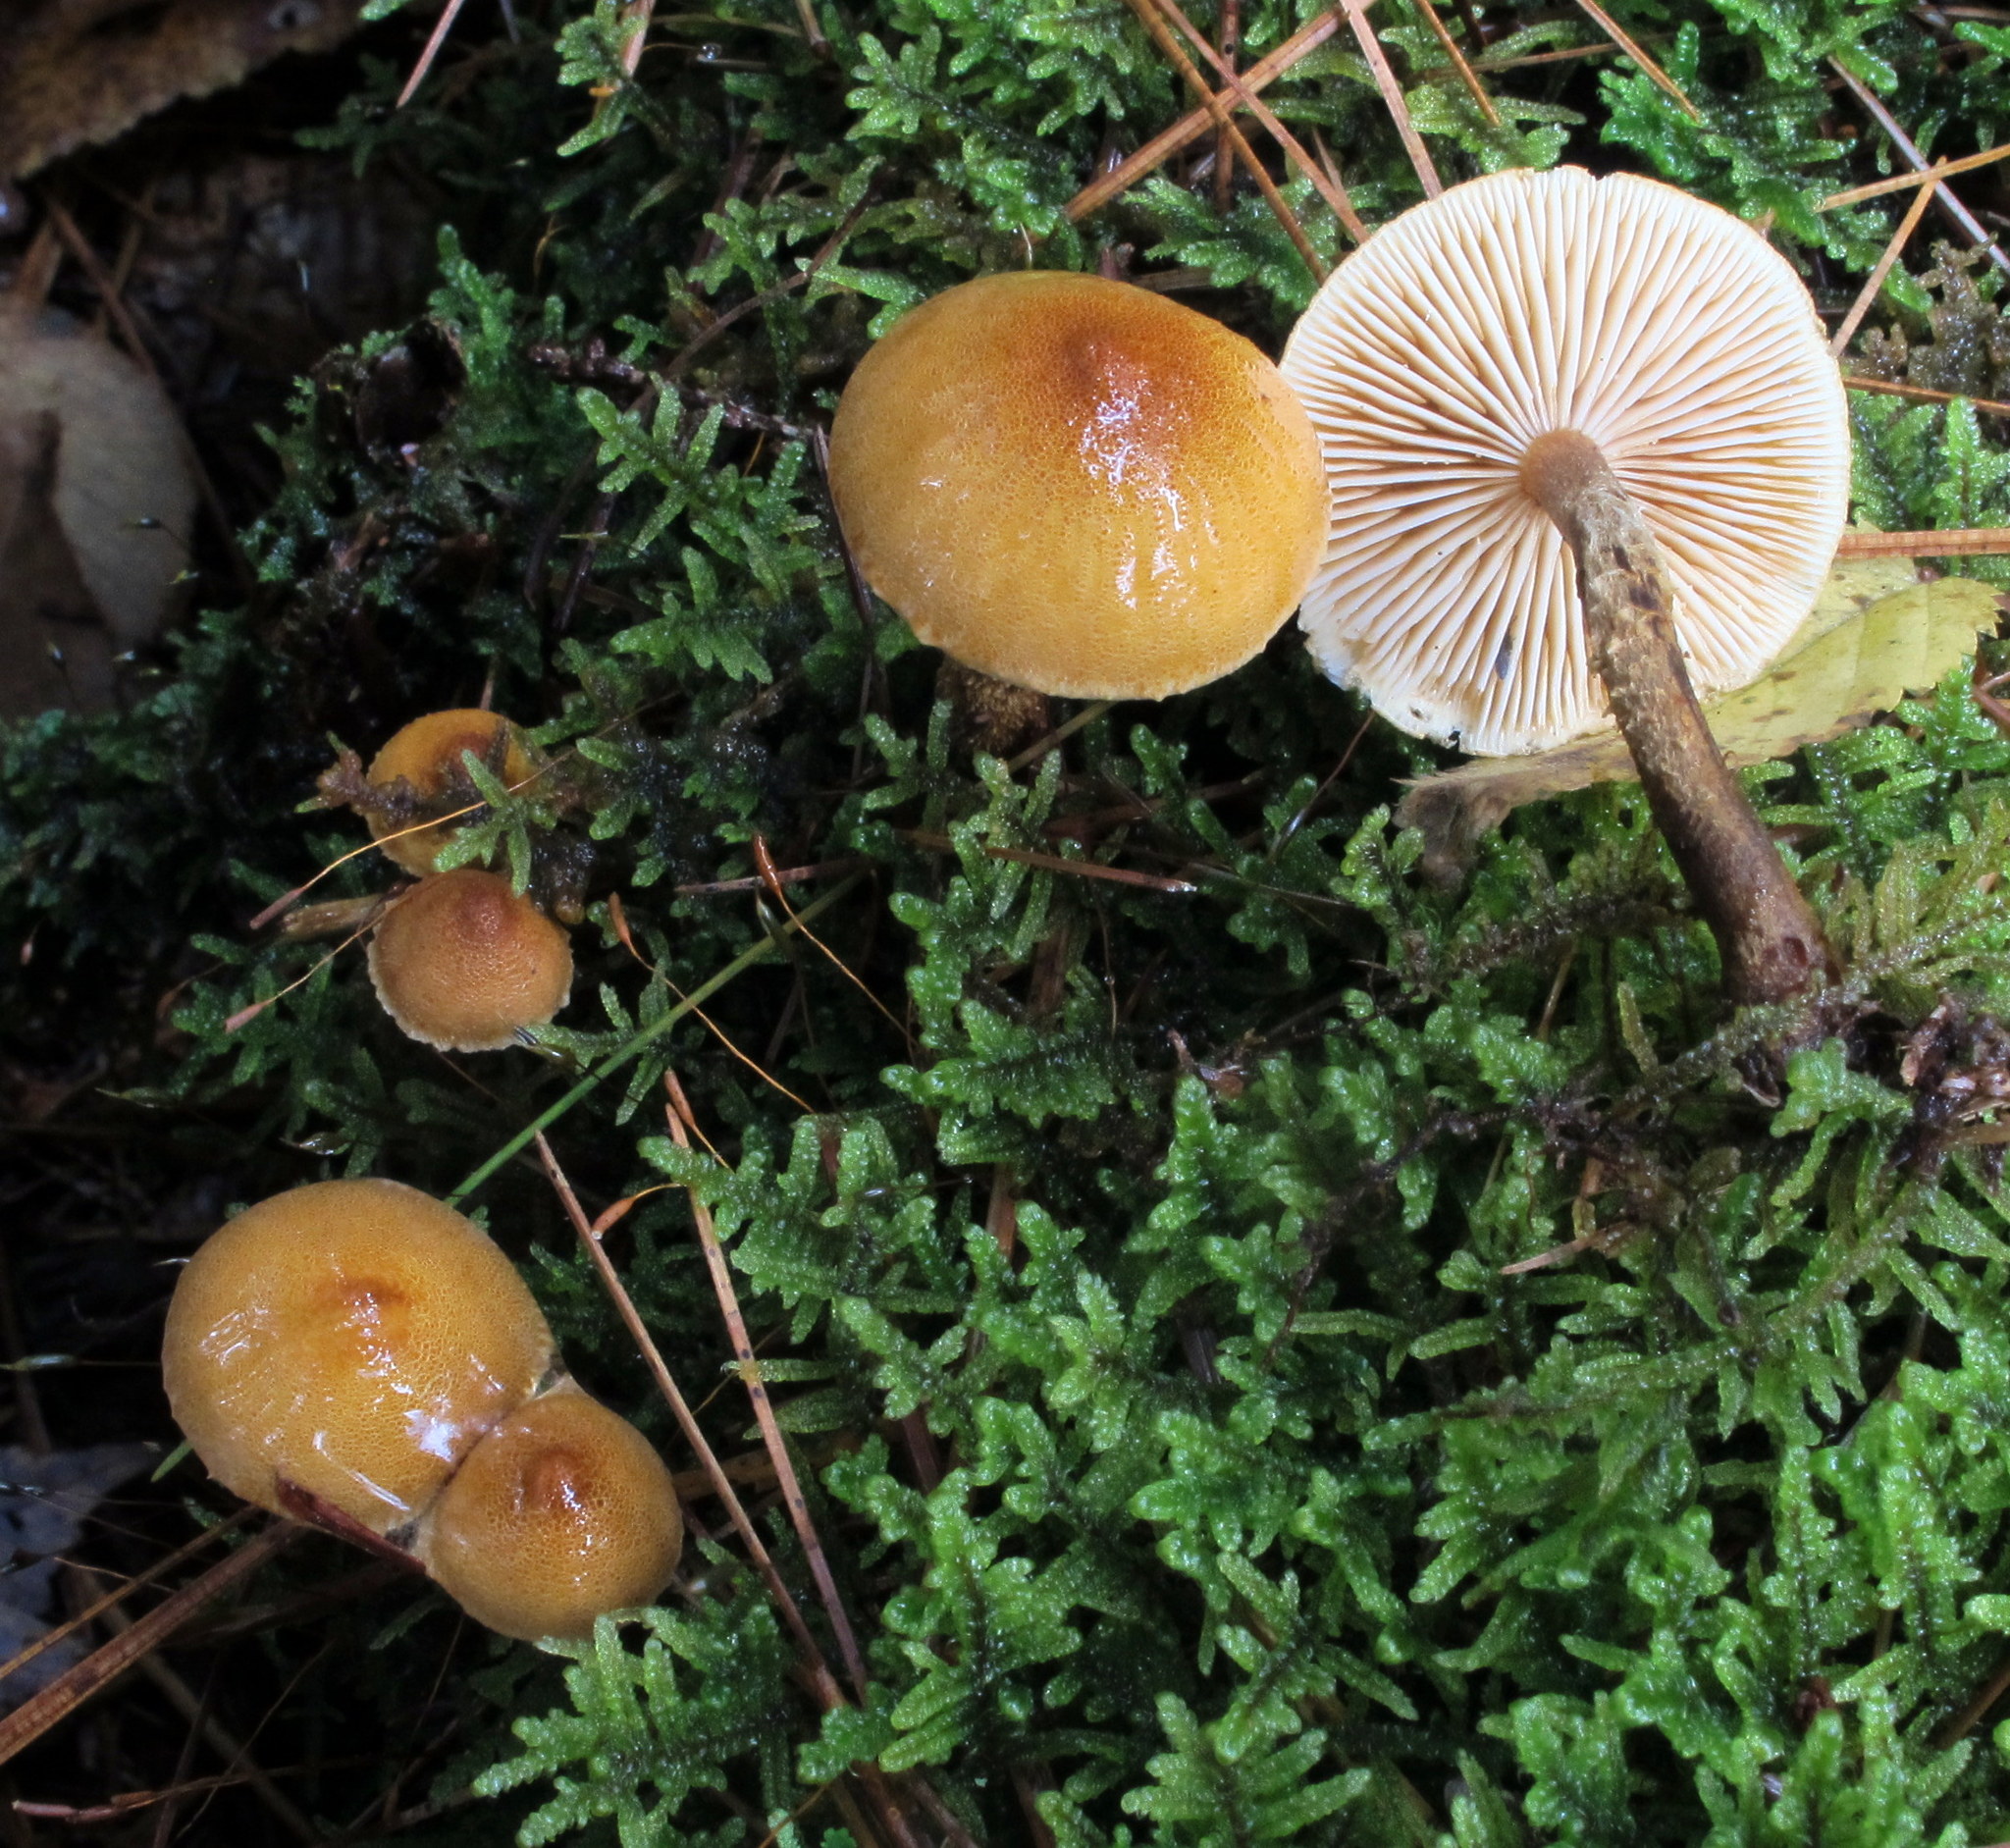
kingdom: Fungi
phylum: Basidiomycota
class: Agaricomycetes
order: Agaricales
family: Tricholomataceae
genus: Cystoderma
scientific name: Cystoderma amianthinum
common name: Earthy powdercap
